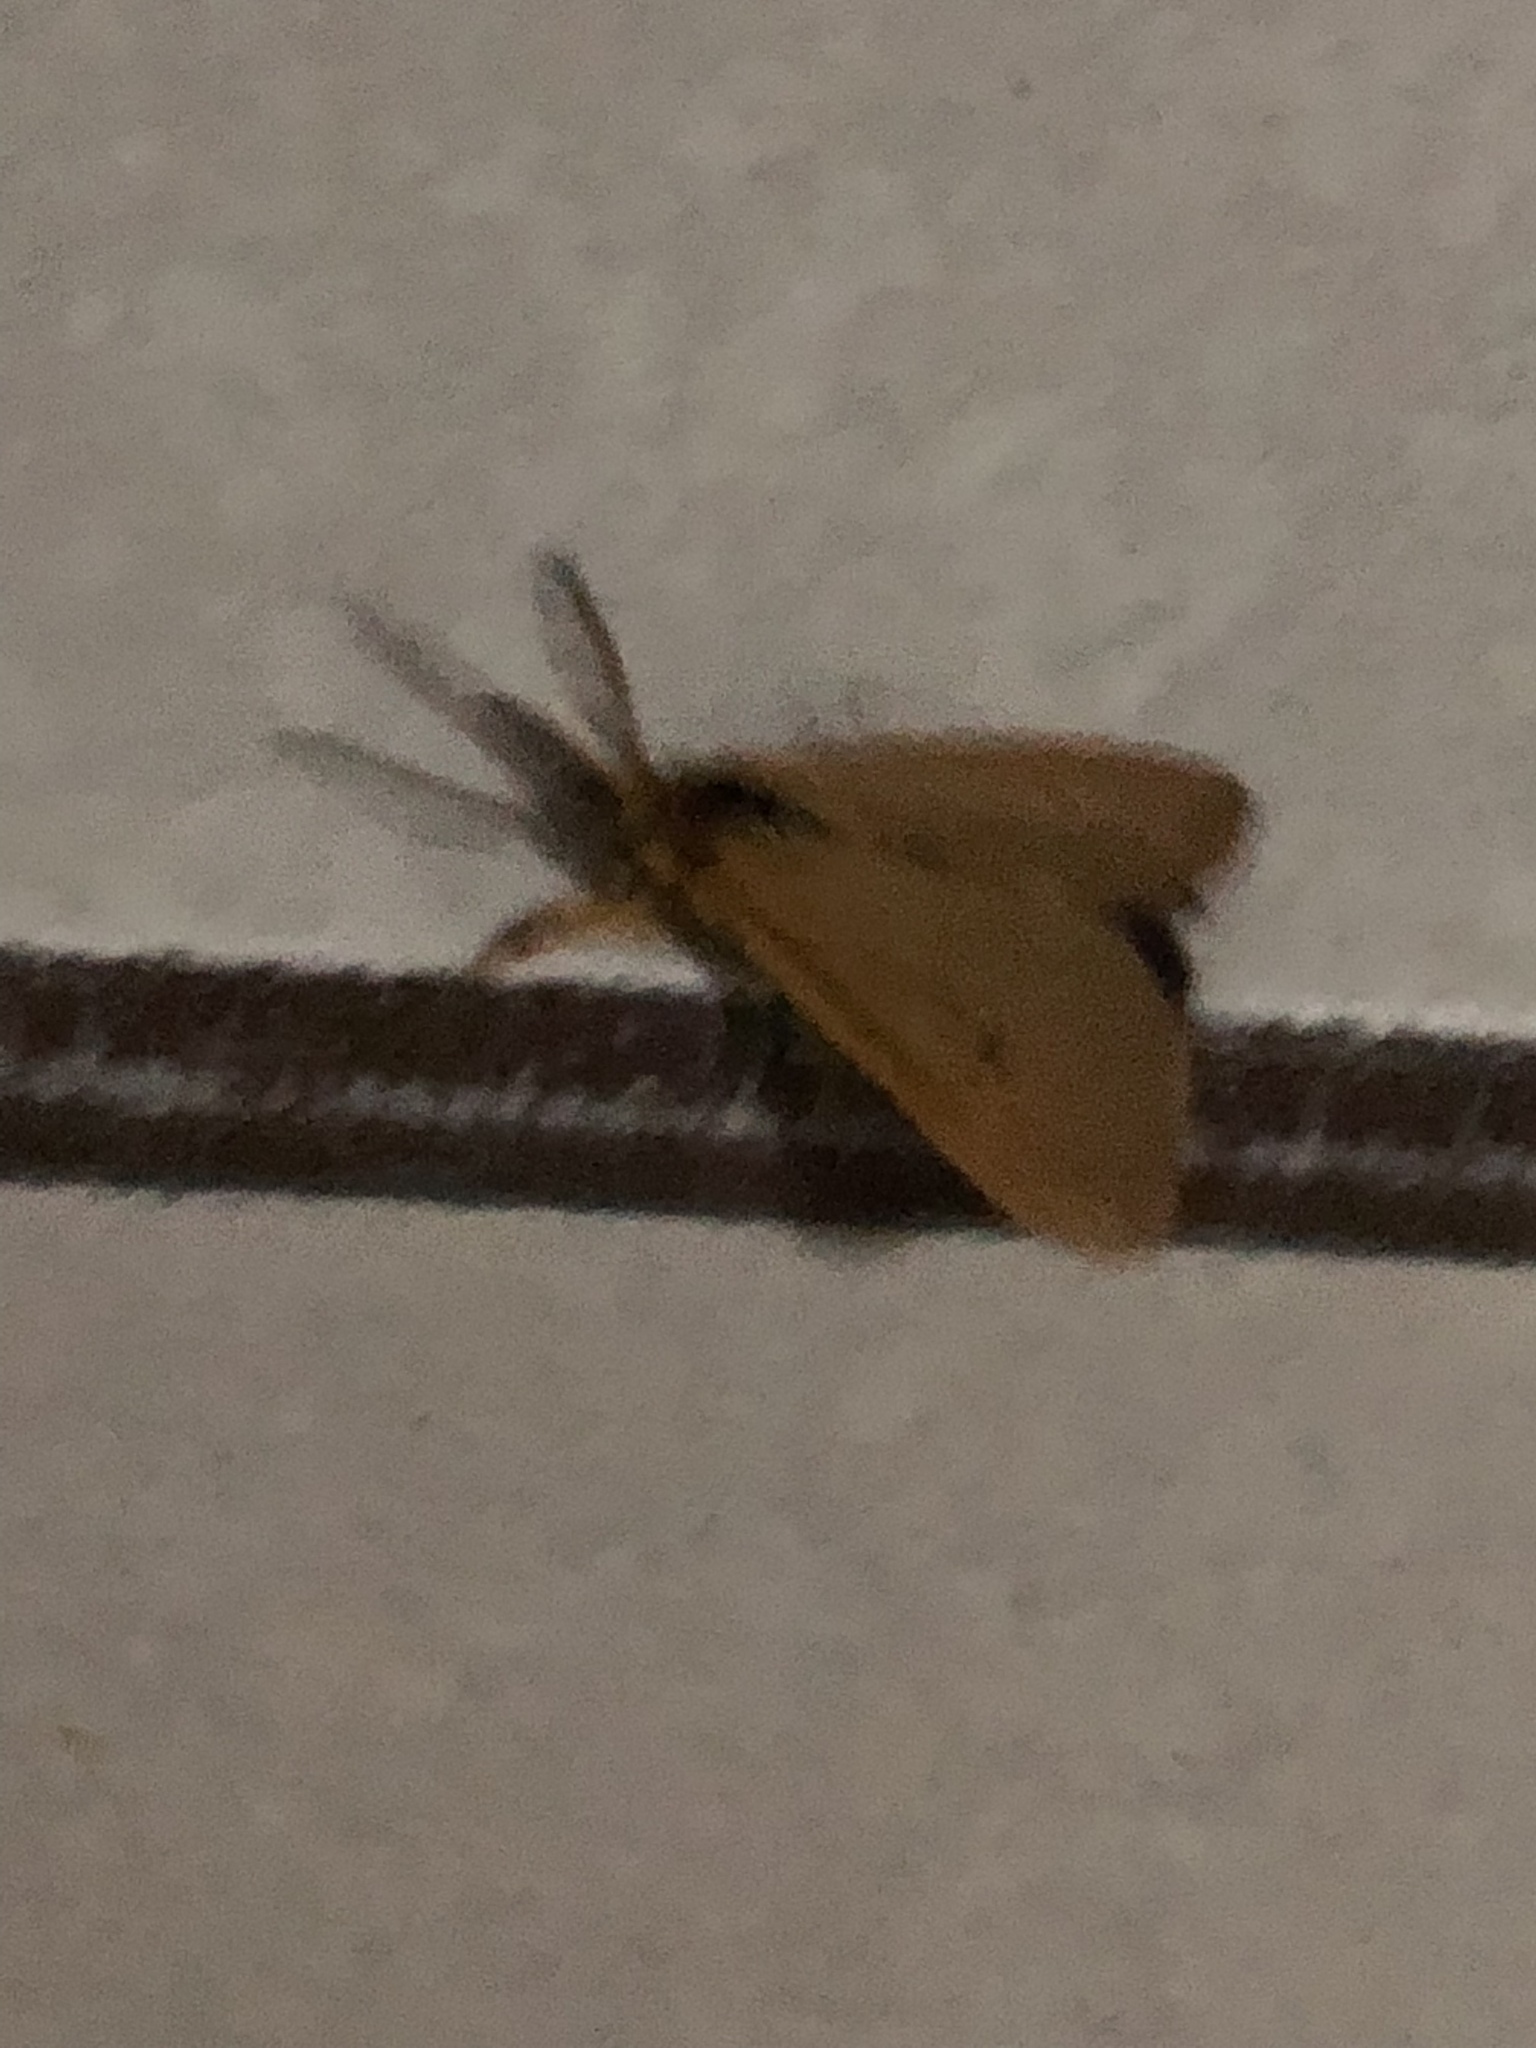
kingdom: Animalia
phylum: Arthropoda
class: Insecta
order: Lepidoptera
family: Erebidae
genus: Bracharoa
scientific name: Bracharoa dregei
